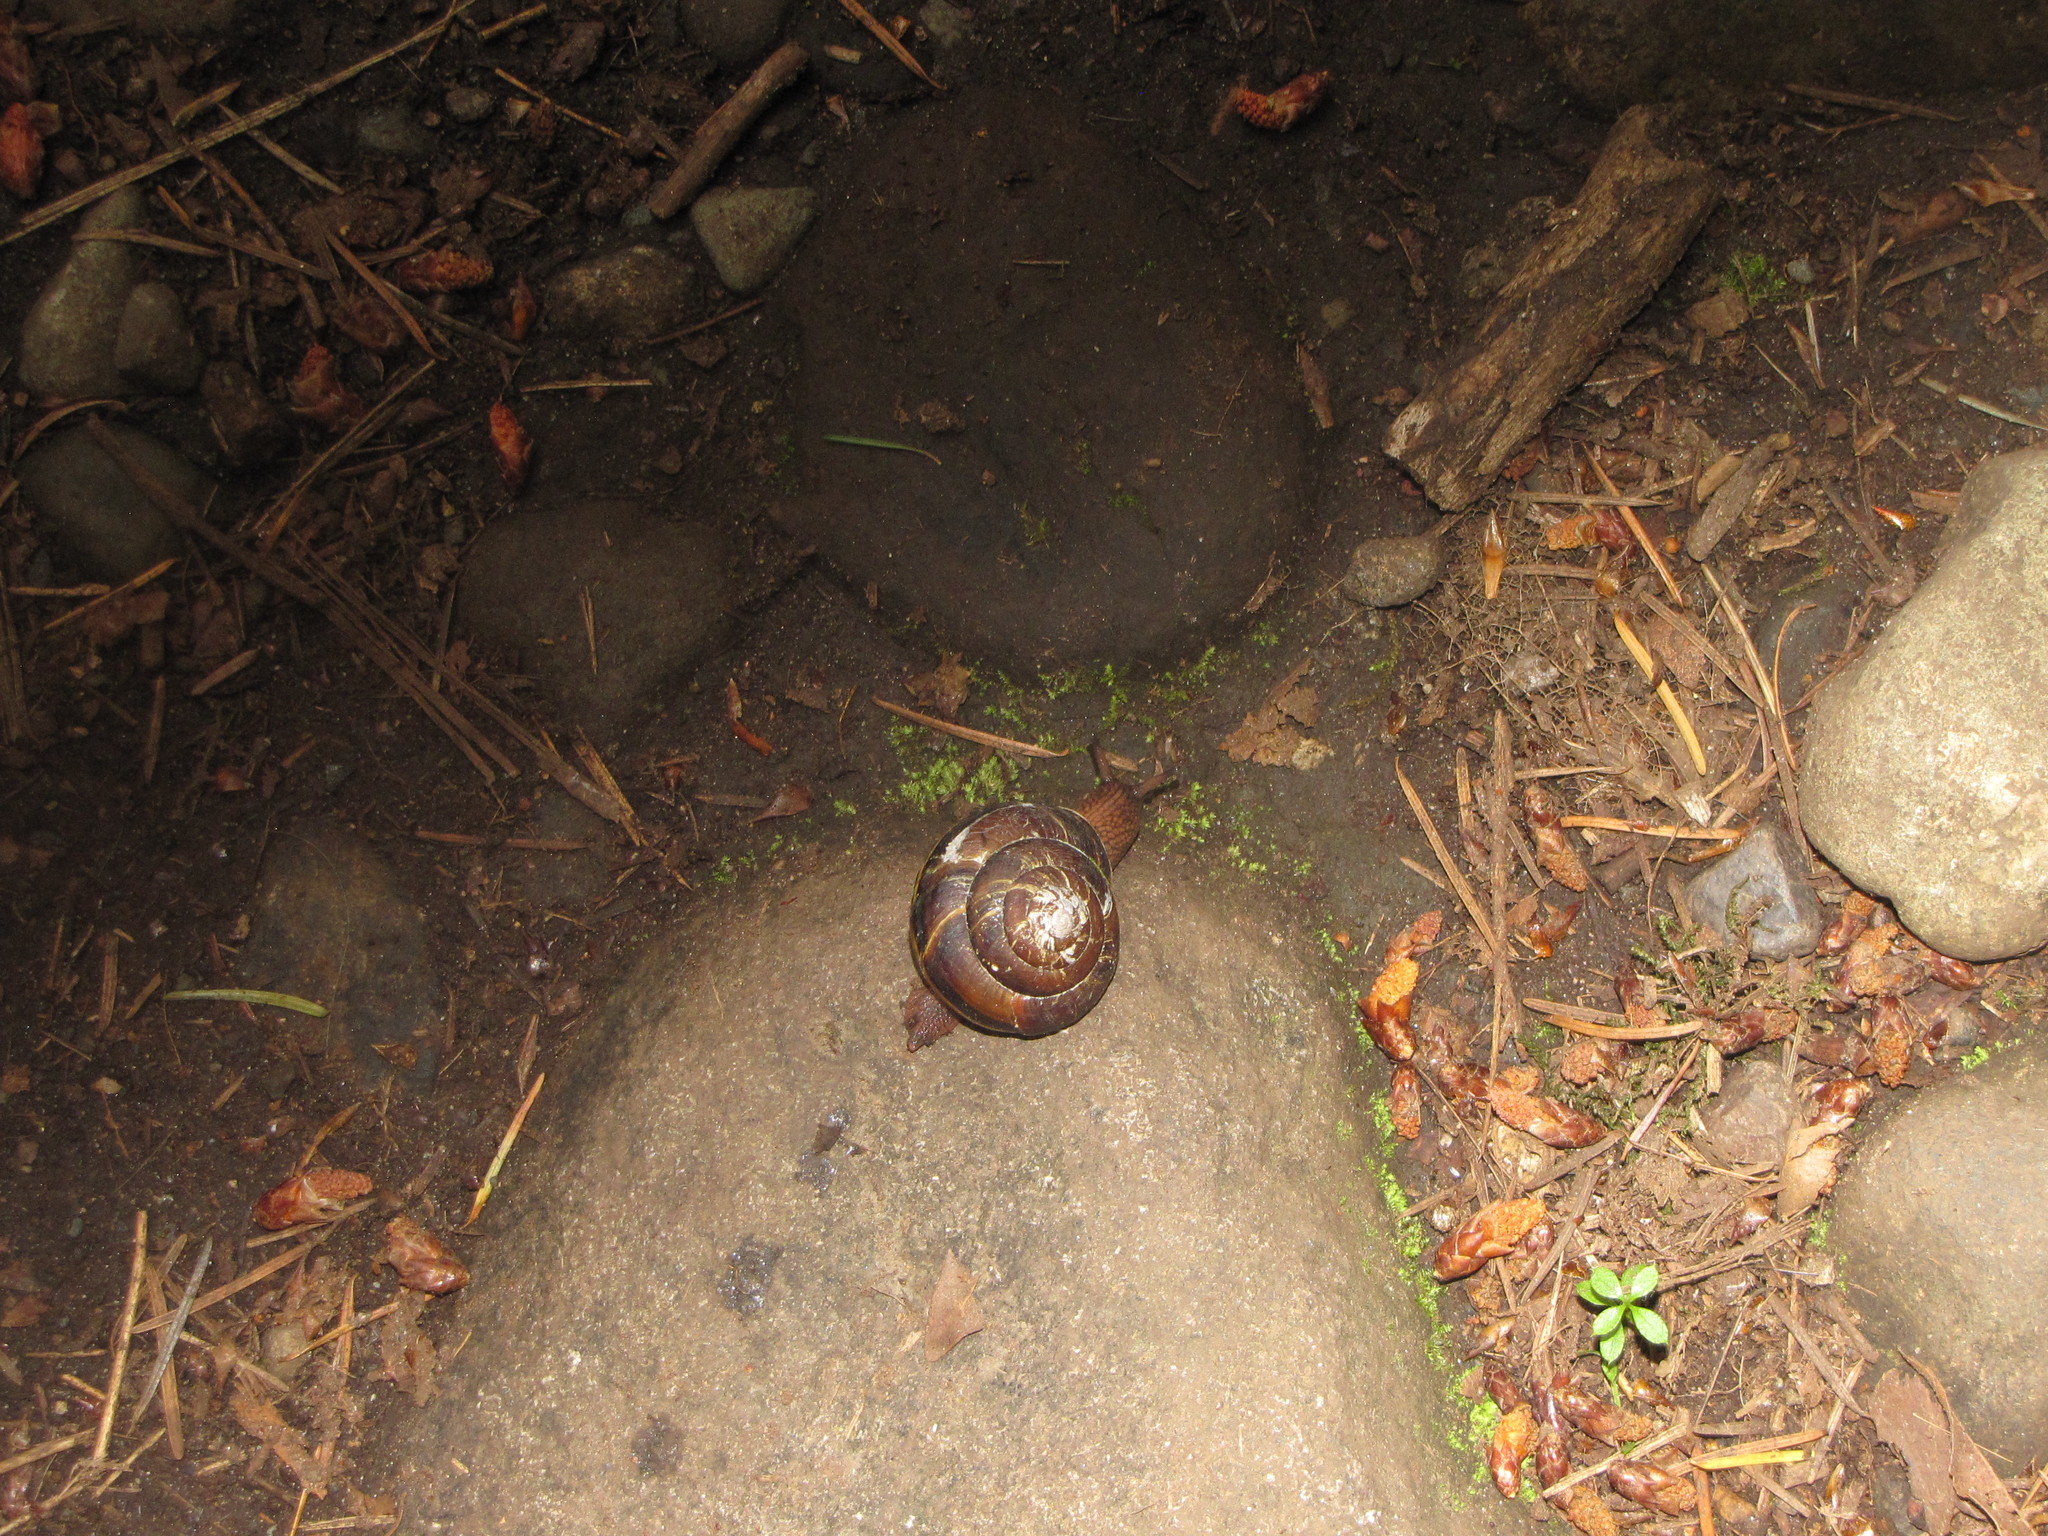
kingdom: Animalia
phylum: Mollusca
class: Gastropoda
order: Stylommatophora
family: Xanthonychidae
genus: Monadenia
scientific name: Monadenia fidelis
